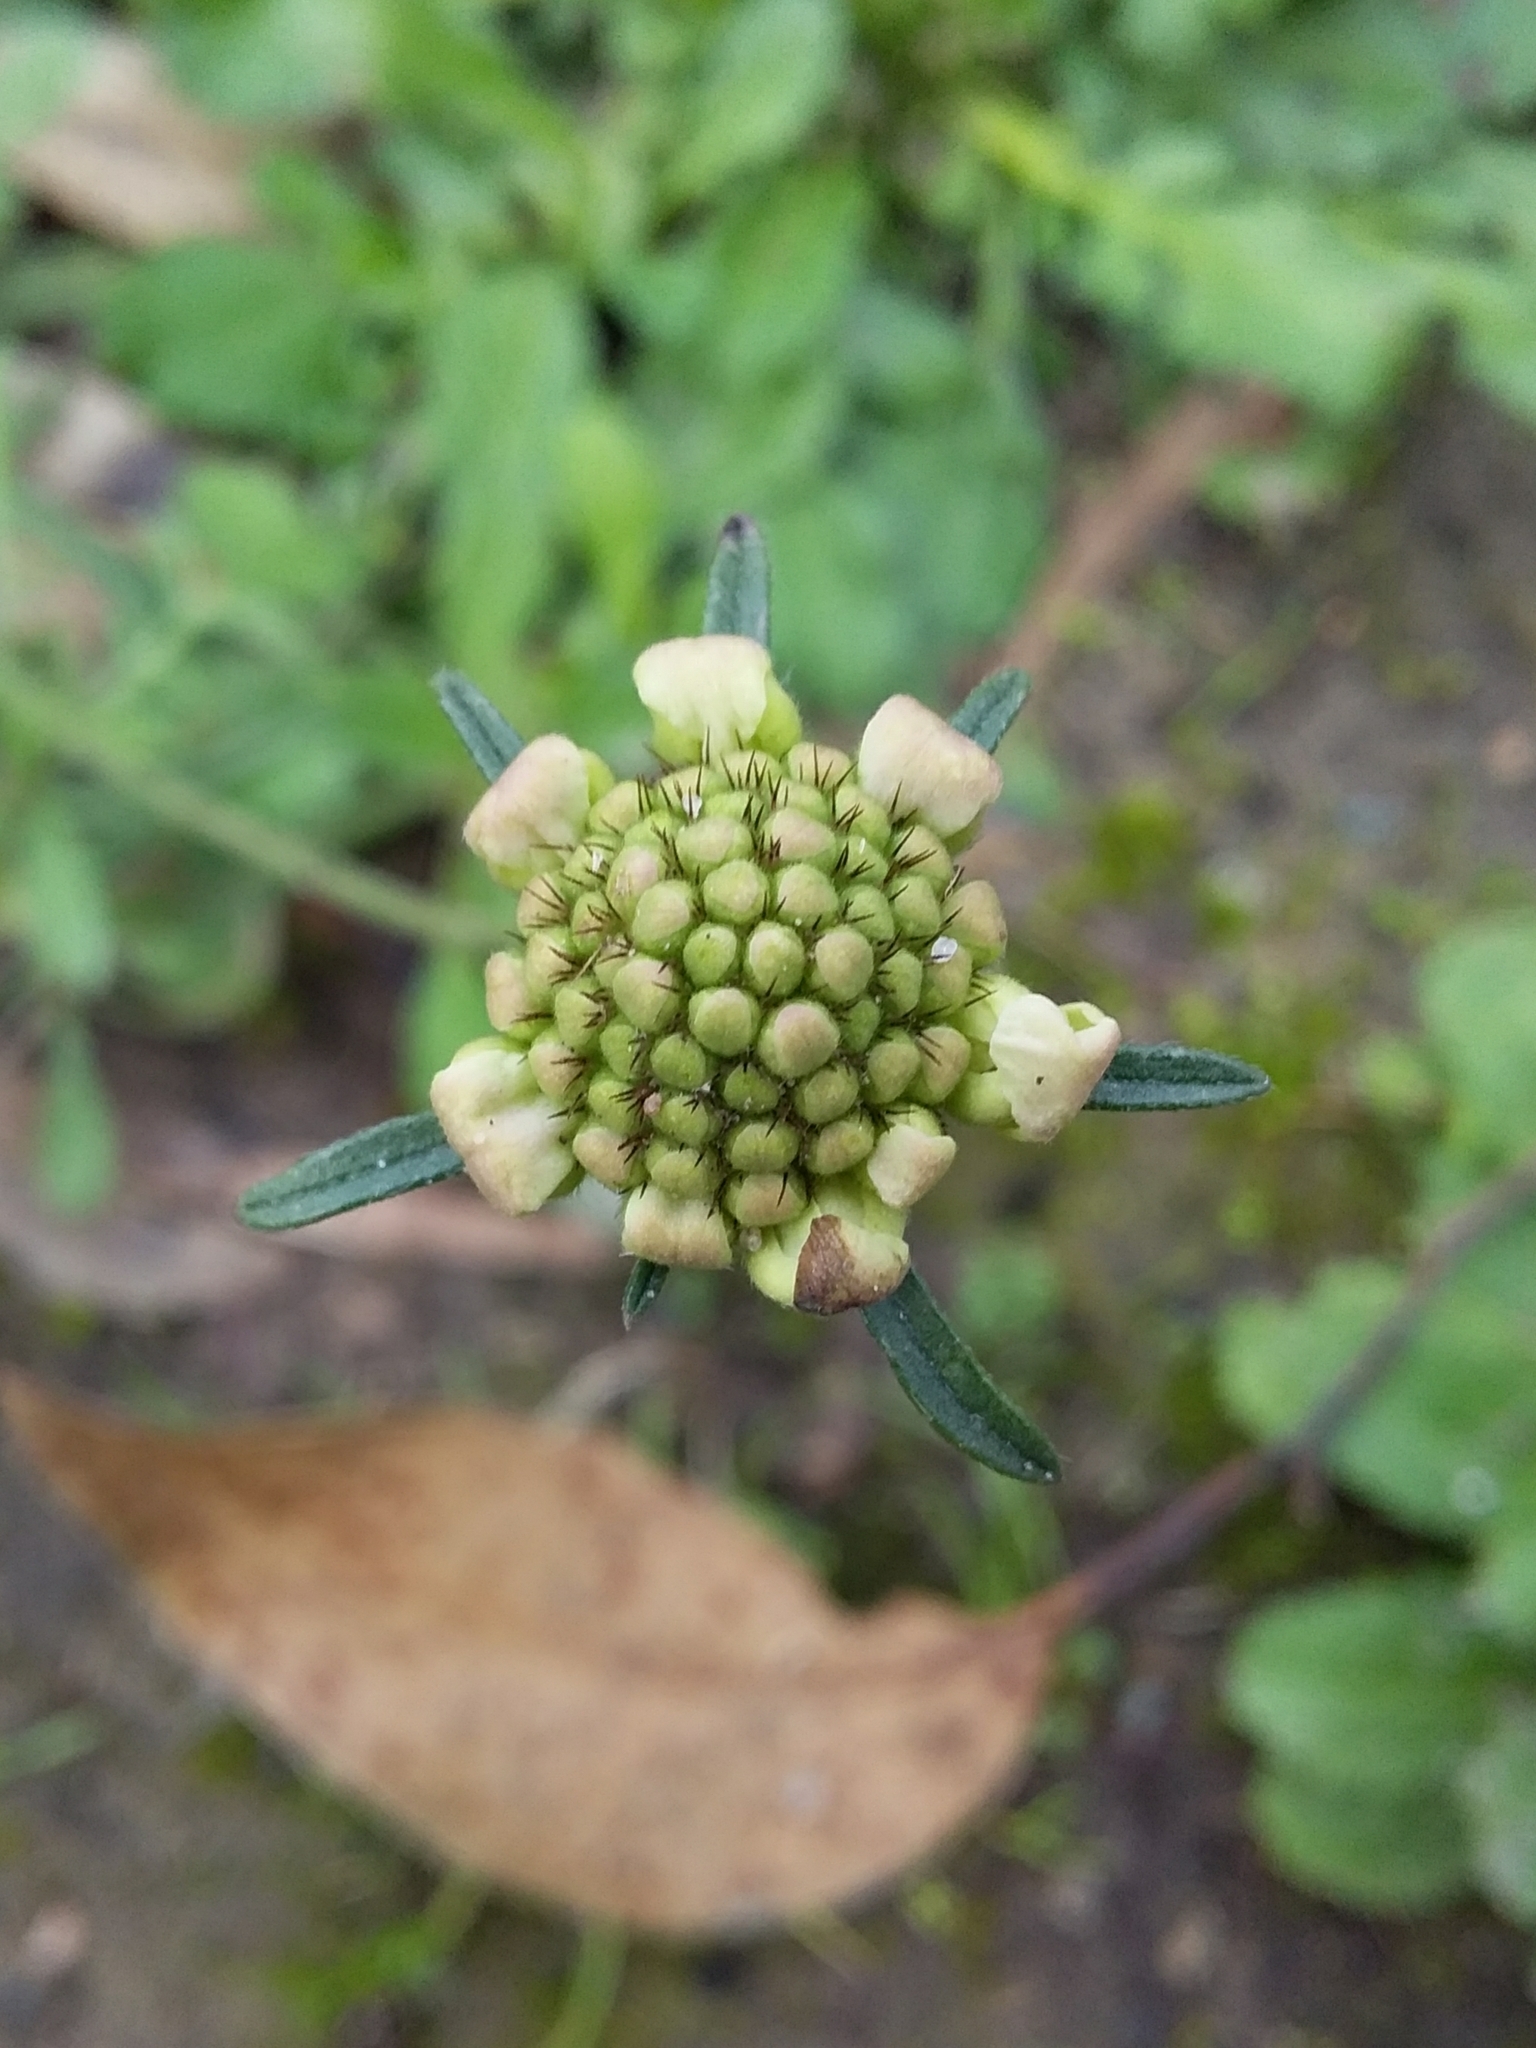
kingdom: Plantae
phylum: Tracheophyta
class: Magnoliopsida
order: Dipsacales
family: Caprifoliaceae
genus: Sixalix
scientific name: Sixalix atropurpurea
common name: Sweet scabious
